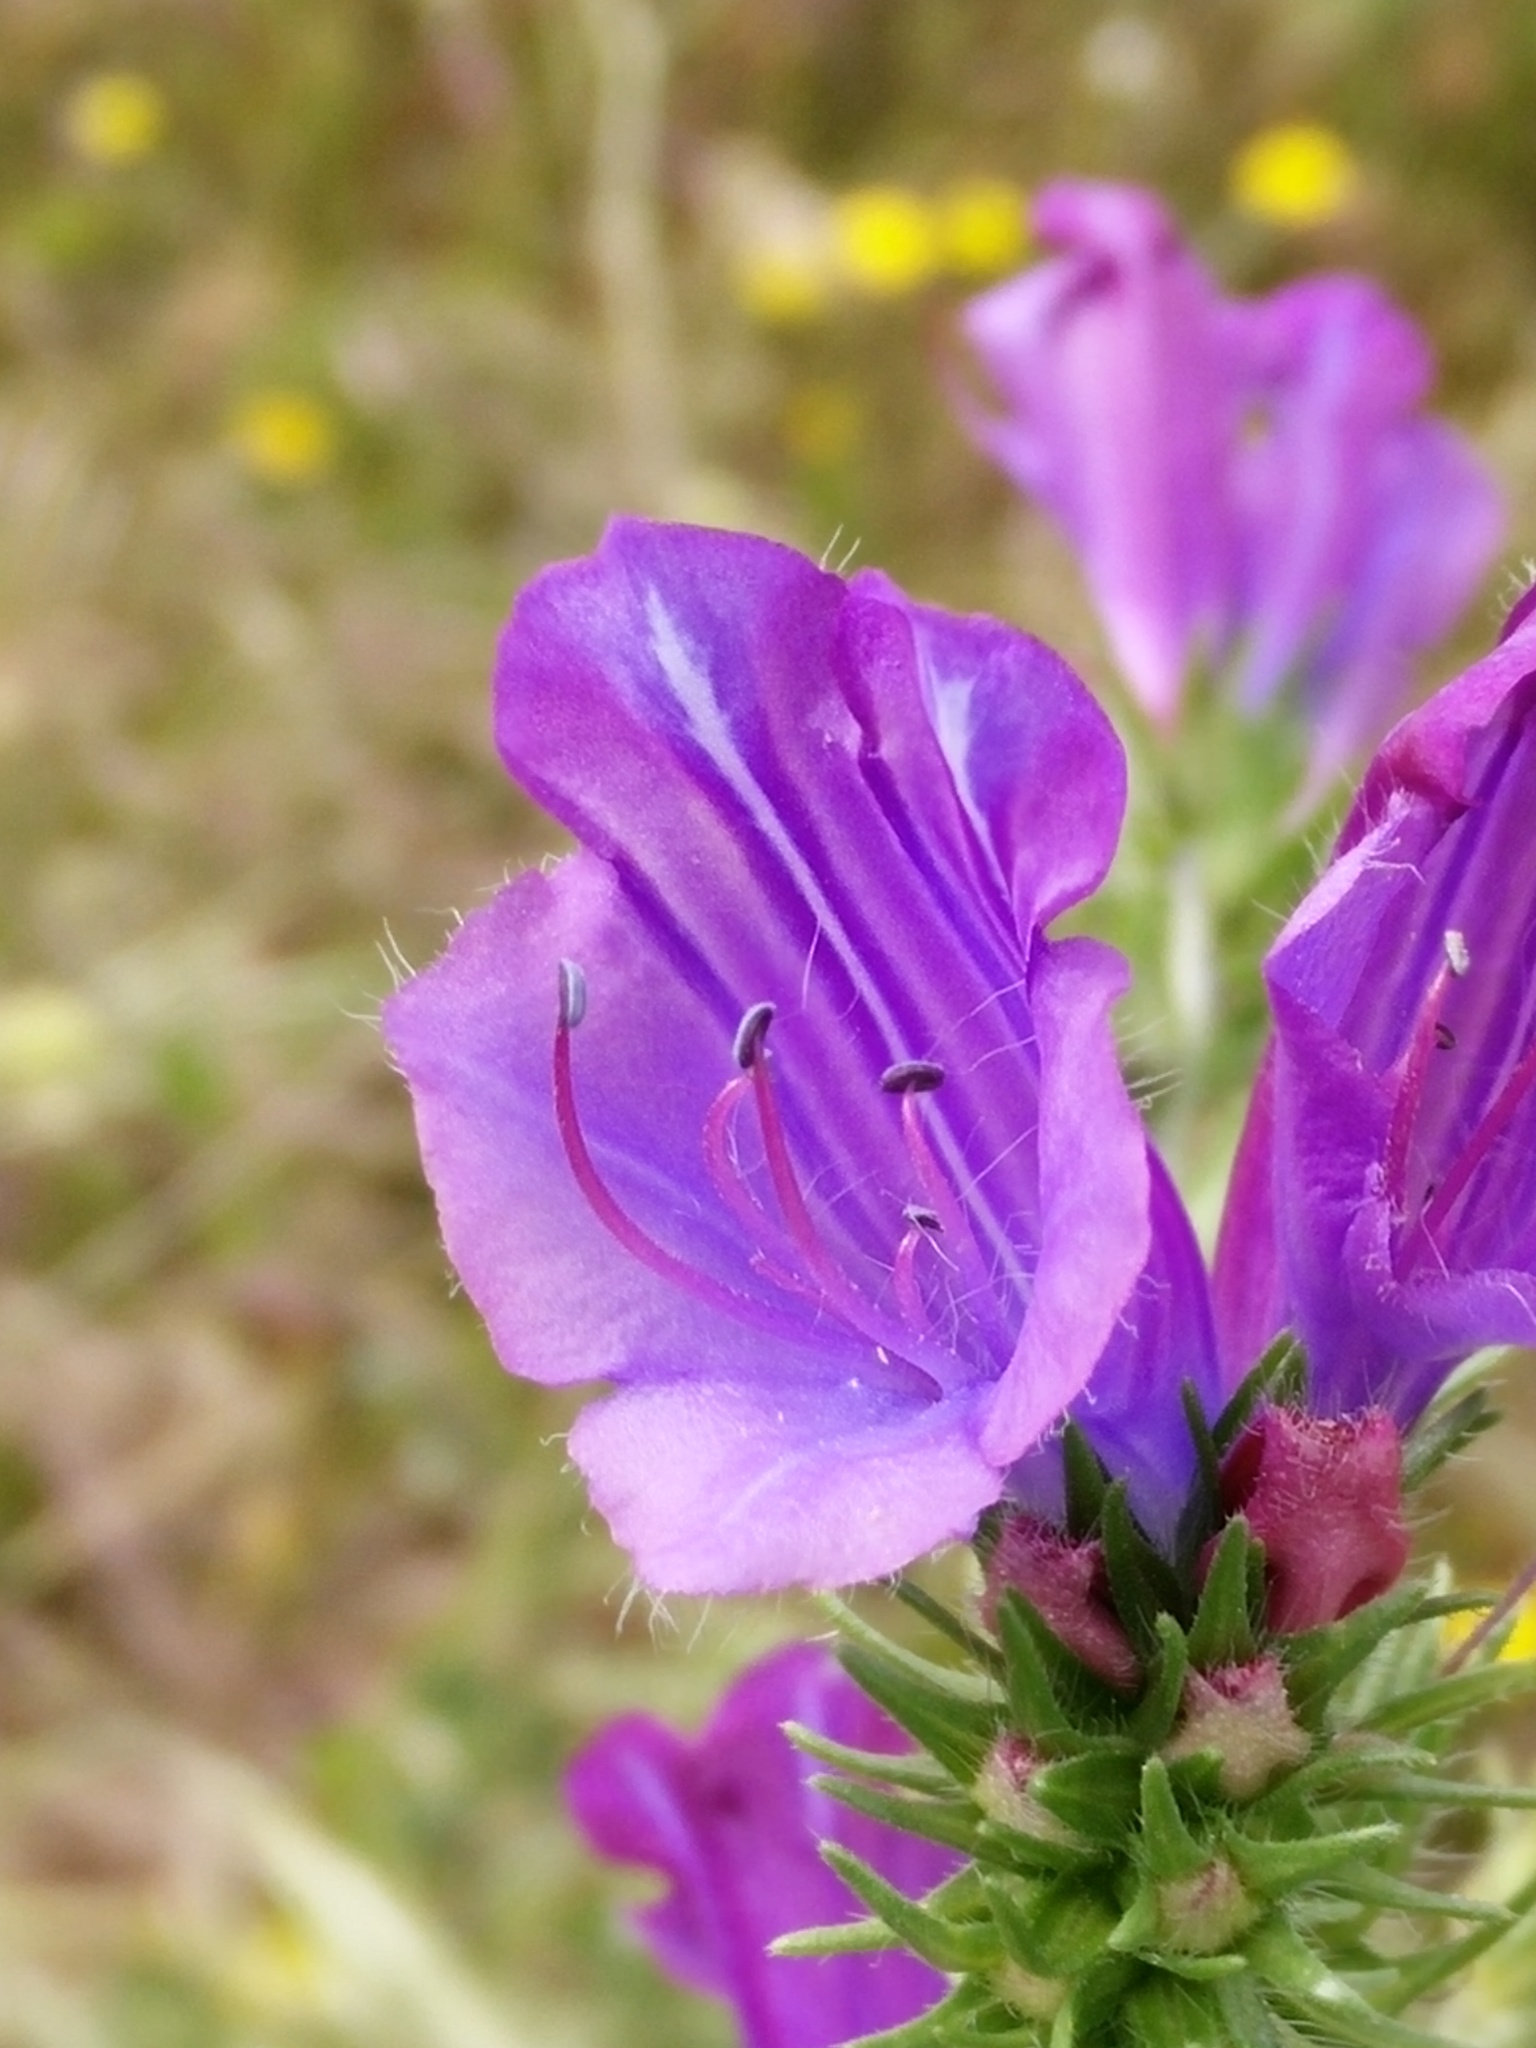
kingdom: Plantae
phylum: Tracheophyta
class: Magnoliopsida
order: Boraginales
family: Boraginaceae
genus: Echium
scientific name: Echium plantagineum
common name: Purple viper's-bugloss
